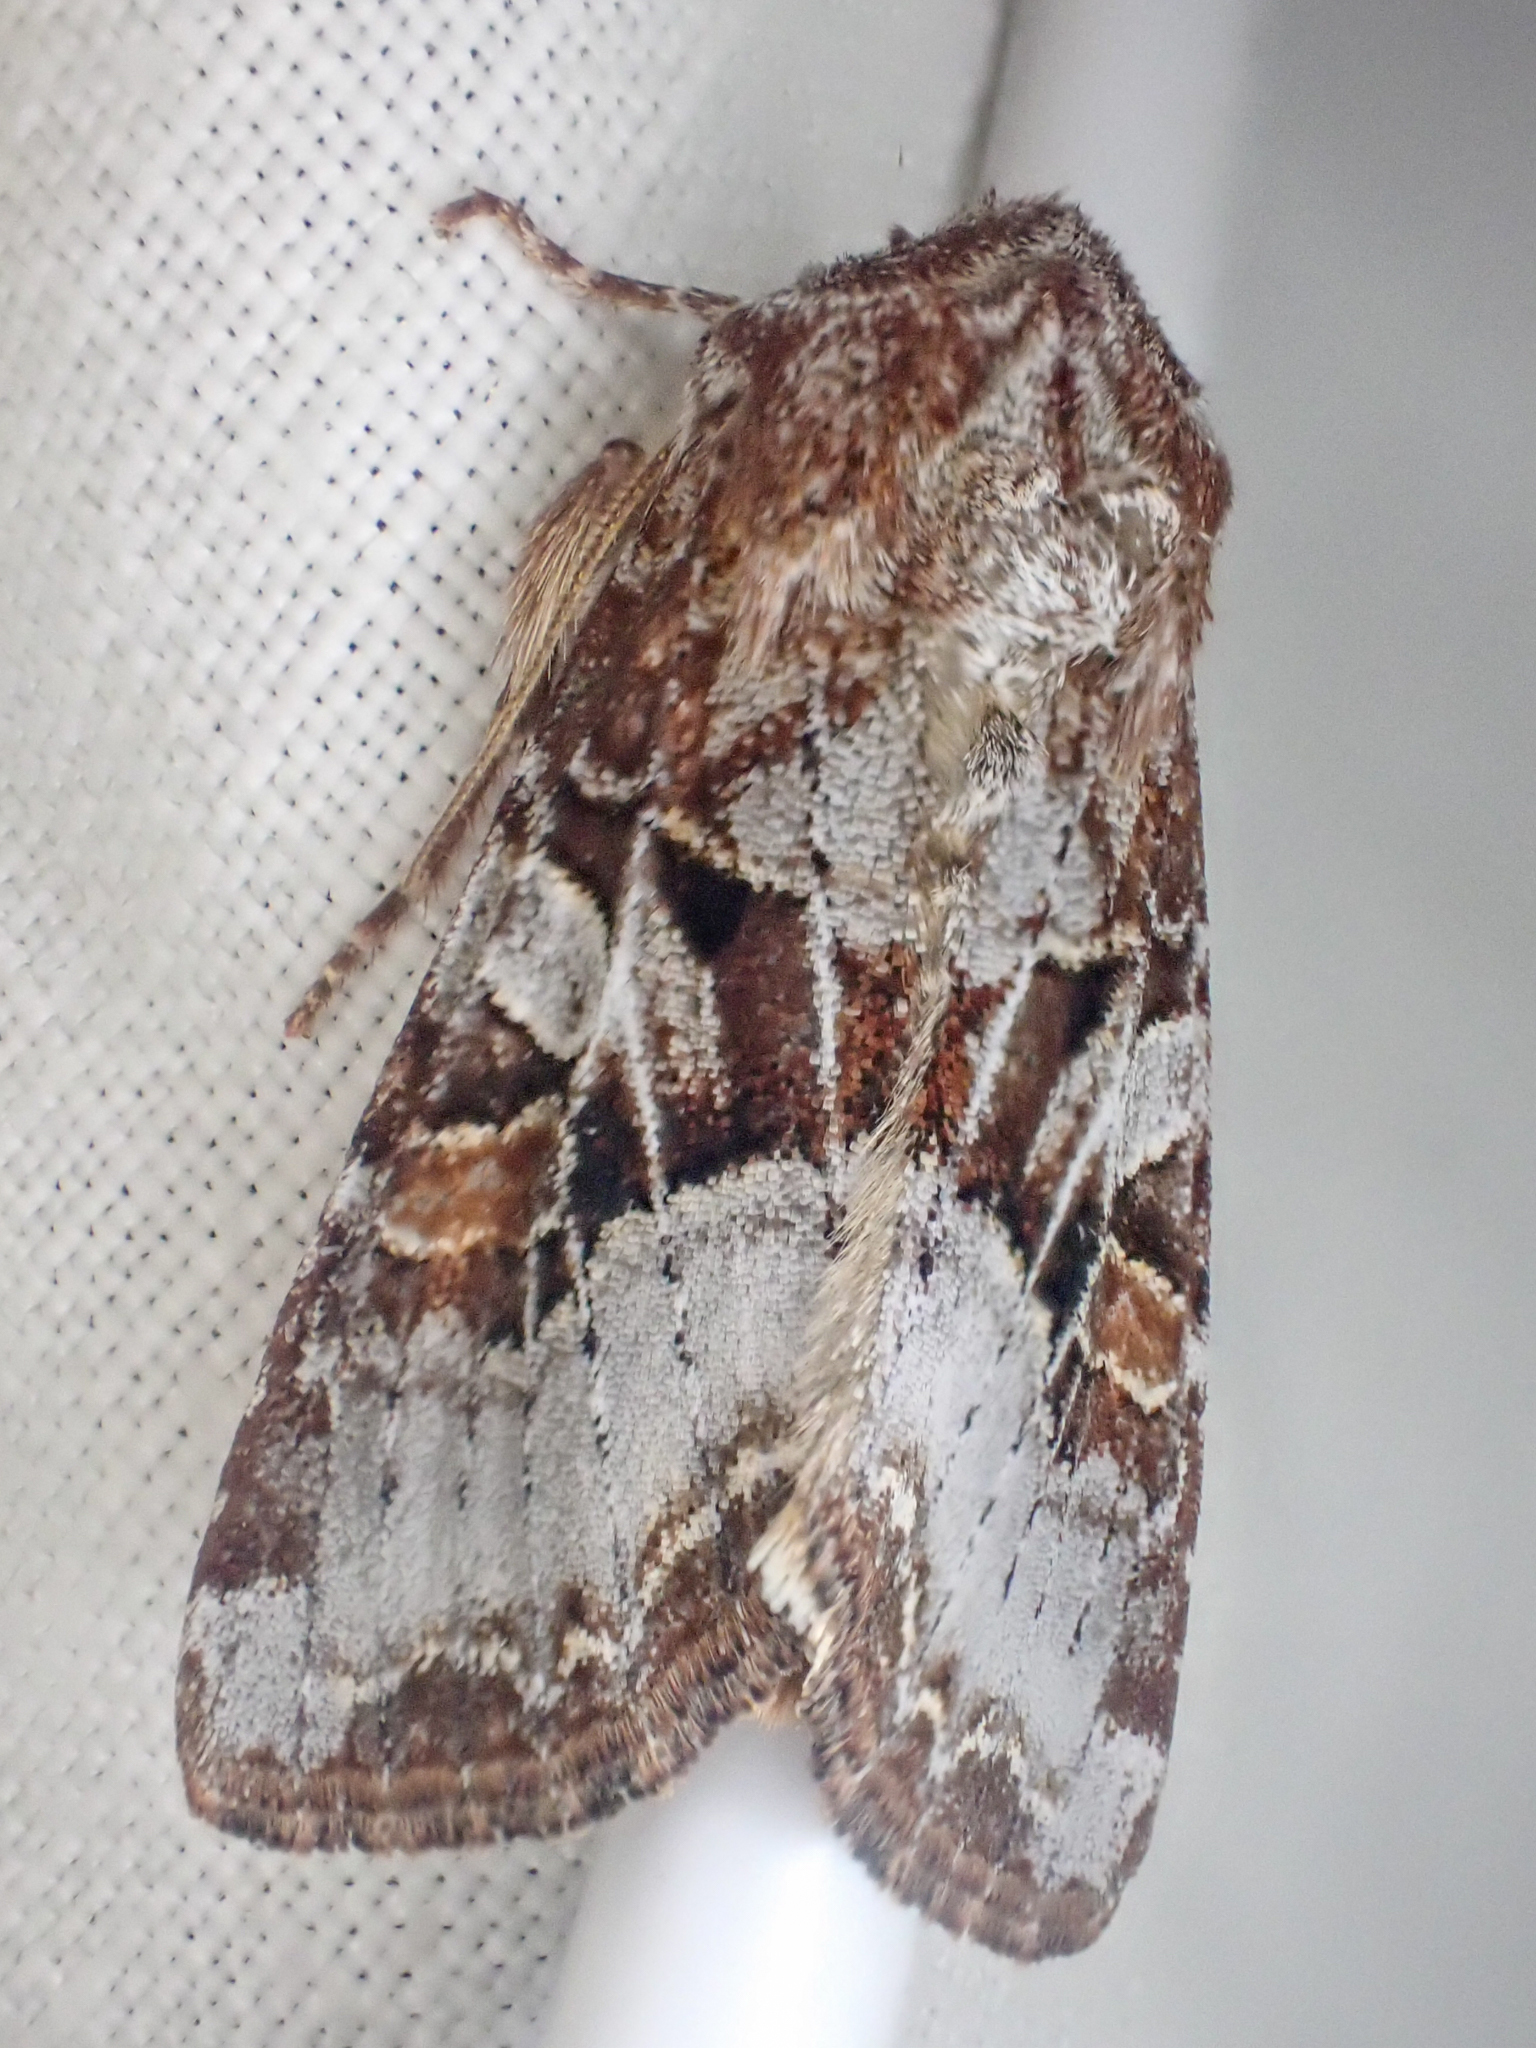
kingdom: Animalia
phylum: Arthropoda
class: Insecta
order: Lepidoptera
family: Noctuidae
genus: Trichordestra
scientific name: Trichordestra tacoma
